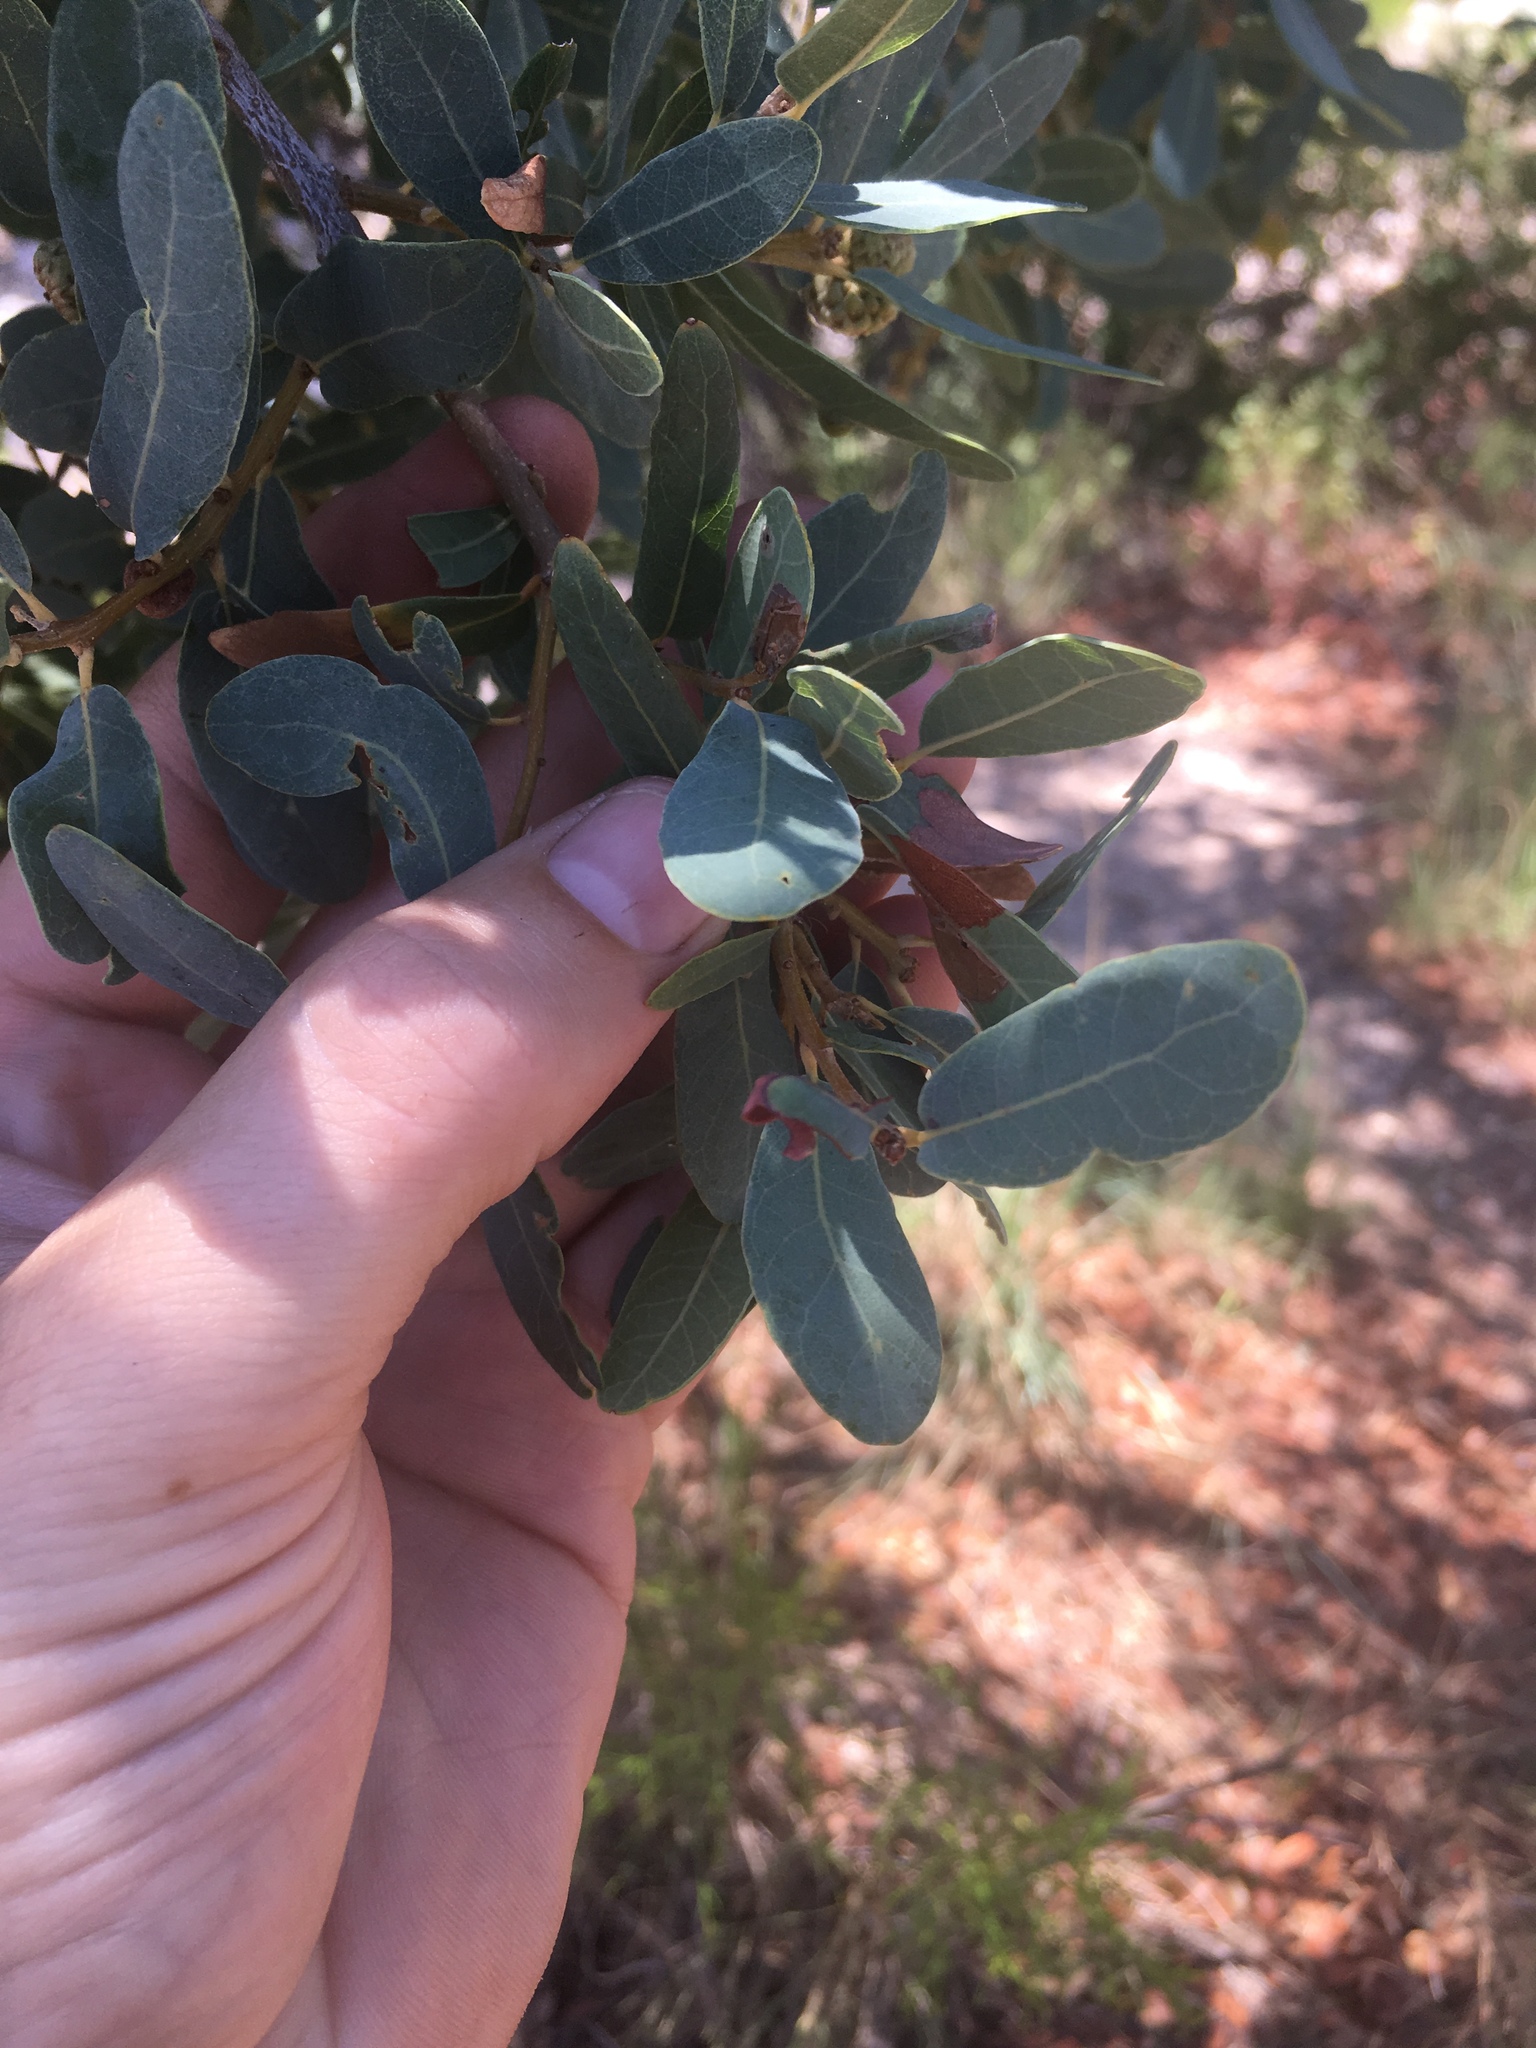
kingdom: Plantae
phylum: Tracheophyta
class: Magnoliopsida
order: Fagales
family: Fagaceae
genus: Quercus
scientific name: Quercus oblongifolia
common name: Mexican blue oak
